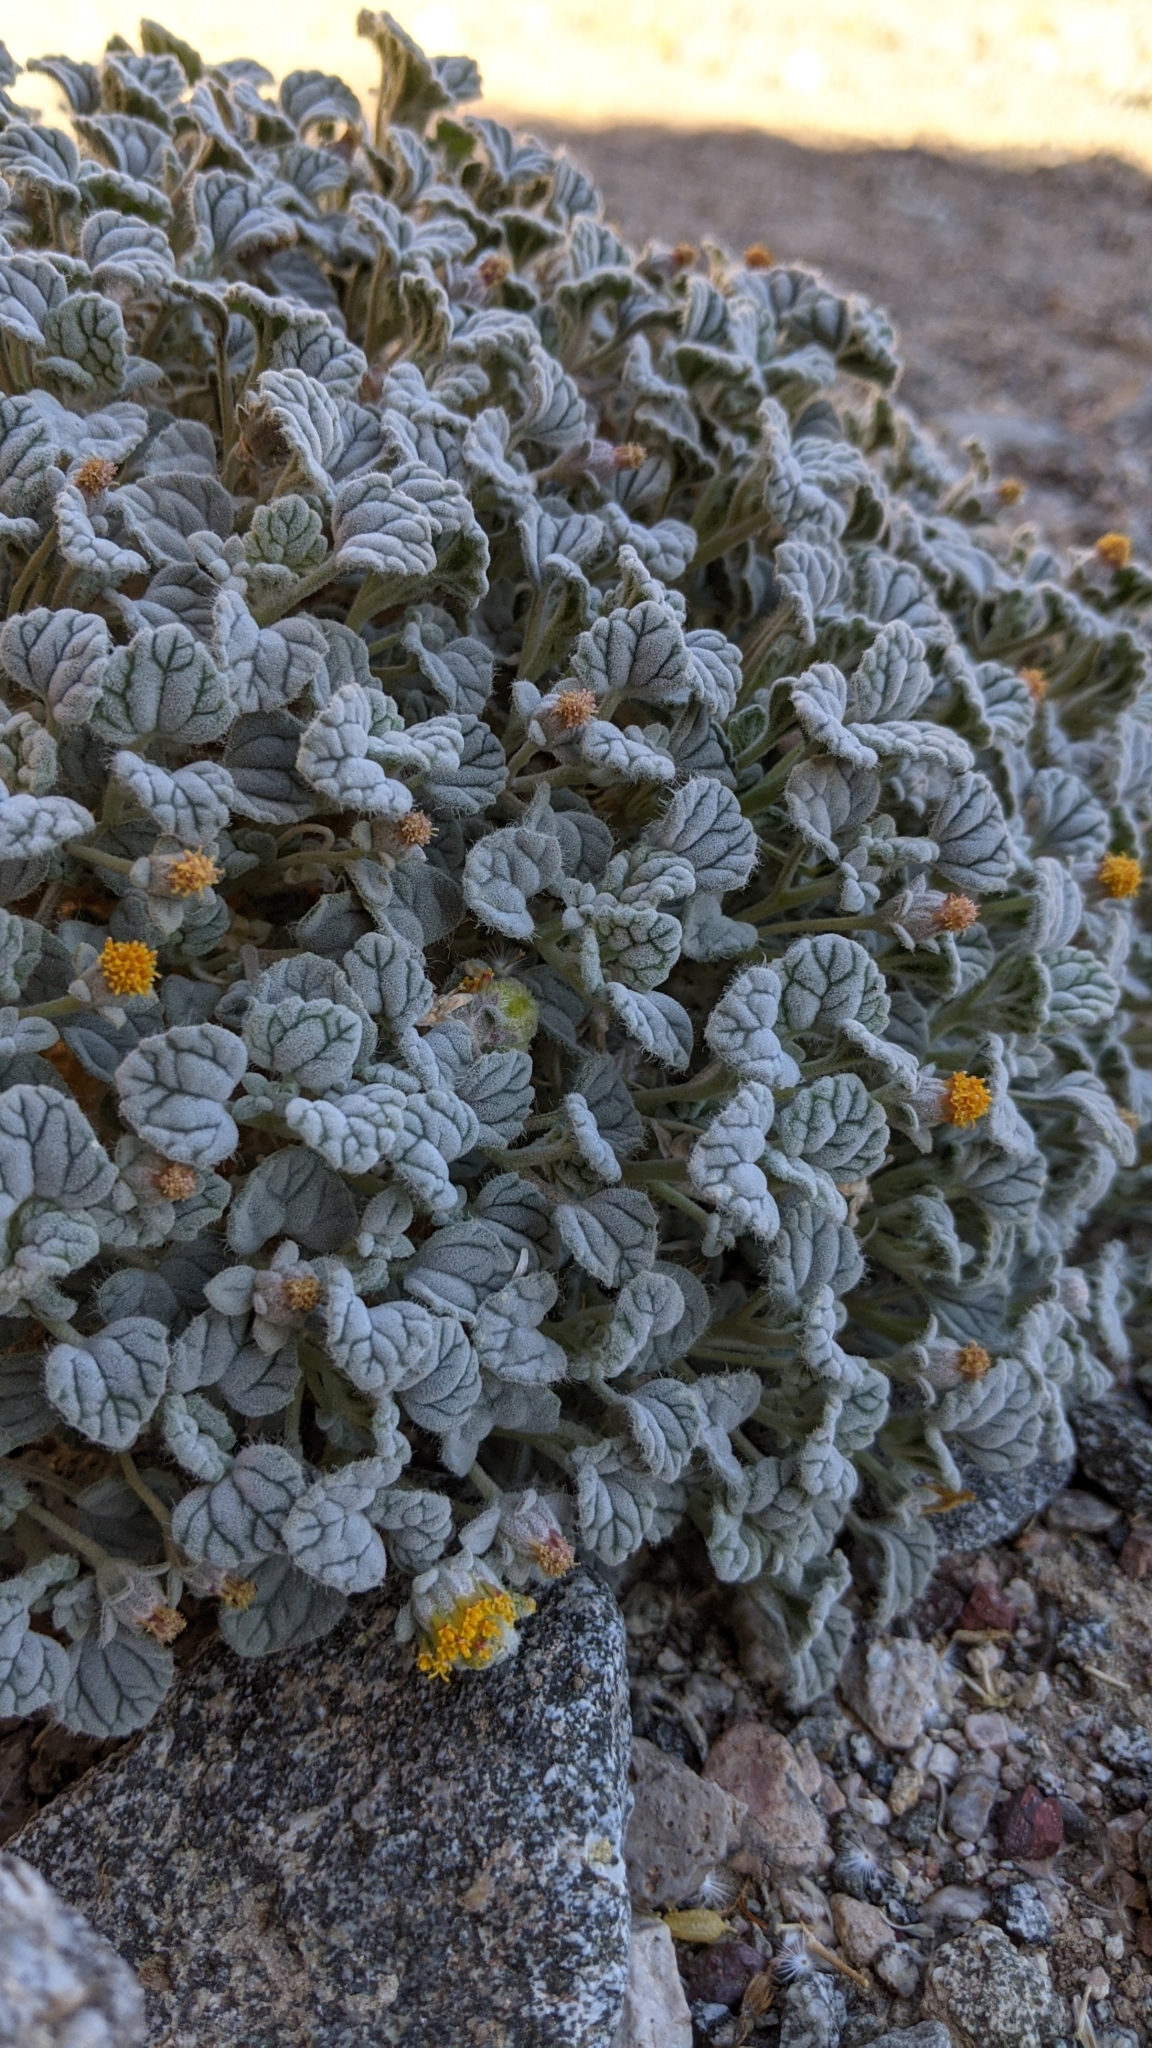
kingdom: Plantae
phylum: Tracheophyta
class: Magnoliopsida
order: Asterales
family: Asteraceae
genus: Psathyrotes
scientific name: Psathyrotes ramosissima
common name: Turtleback
